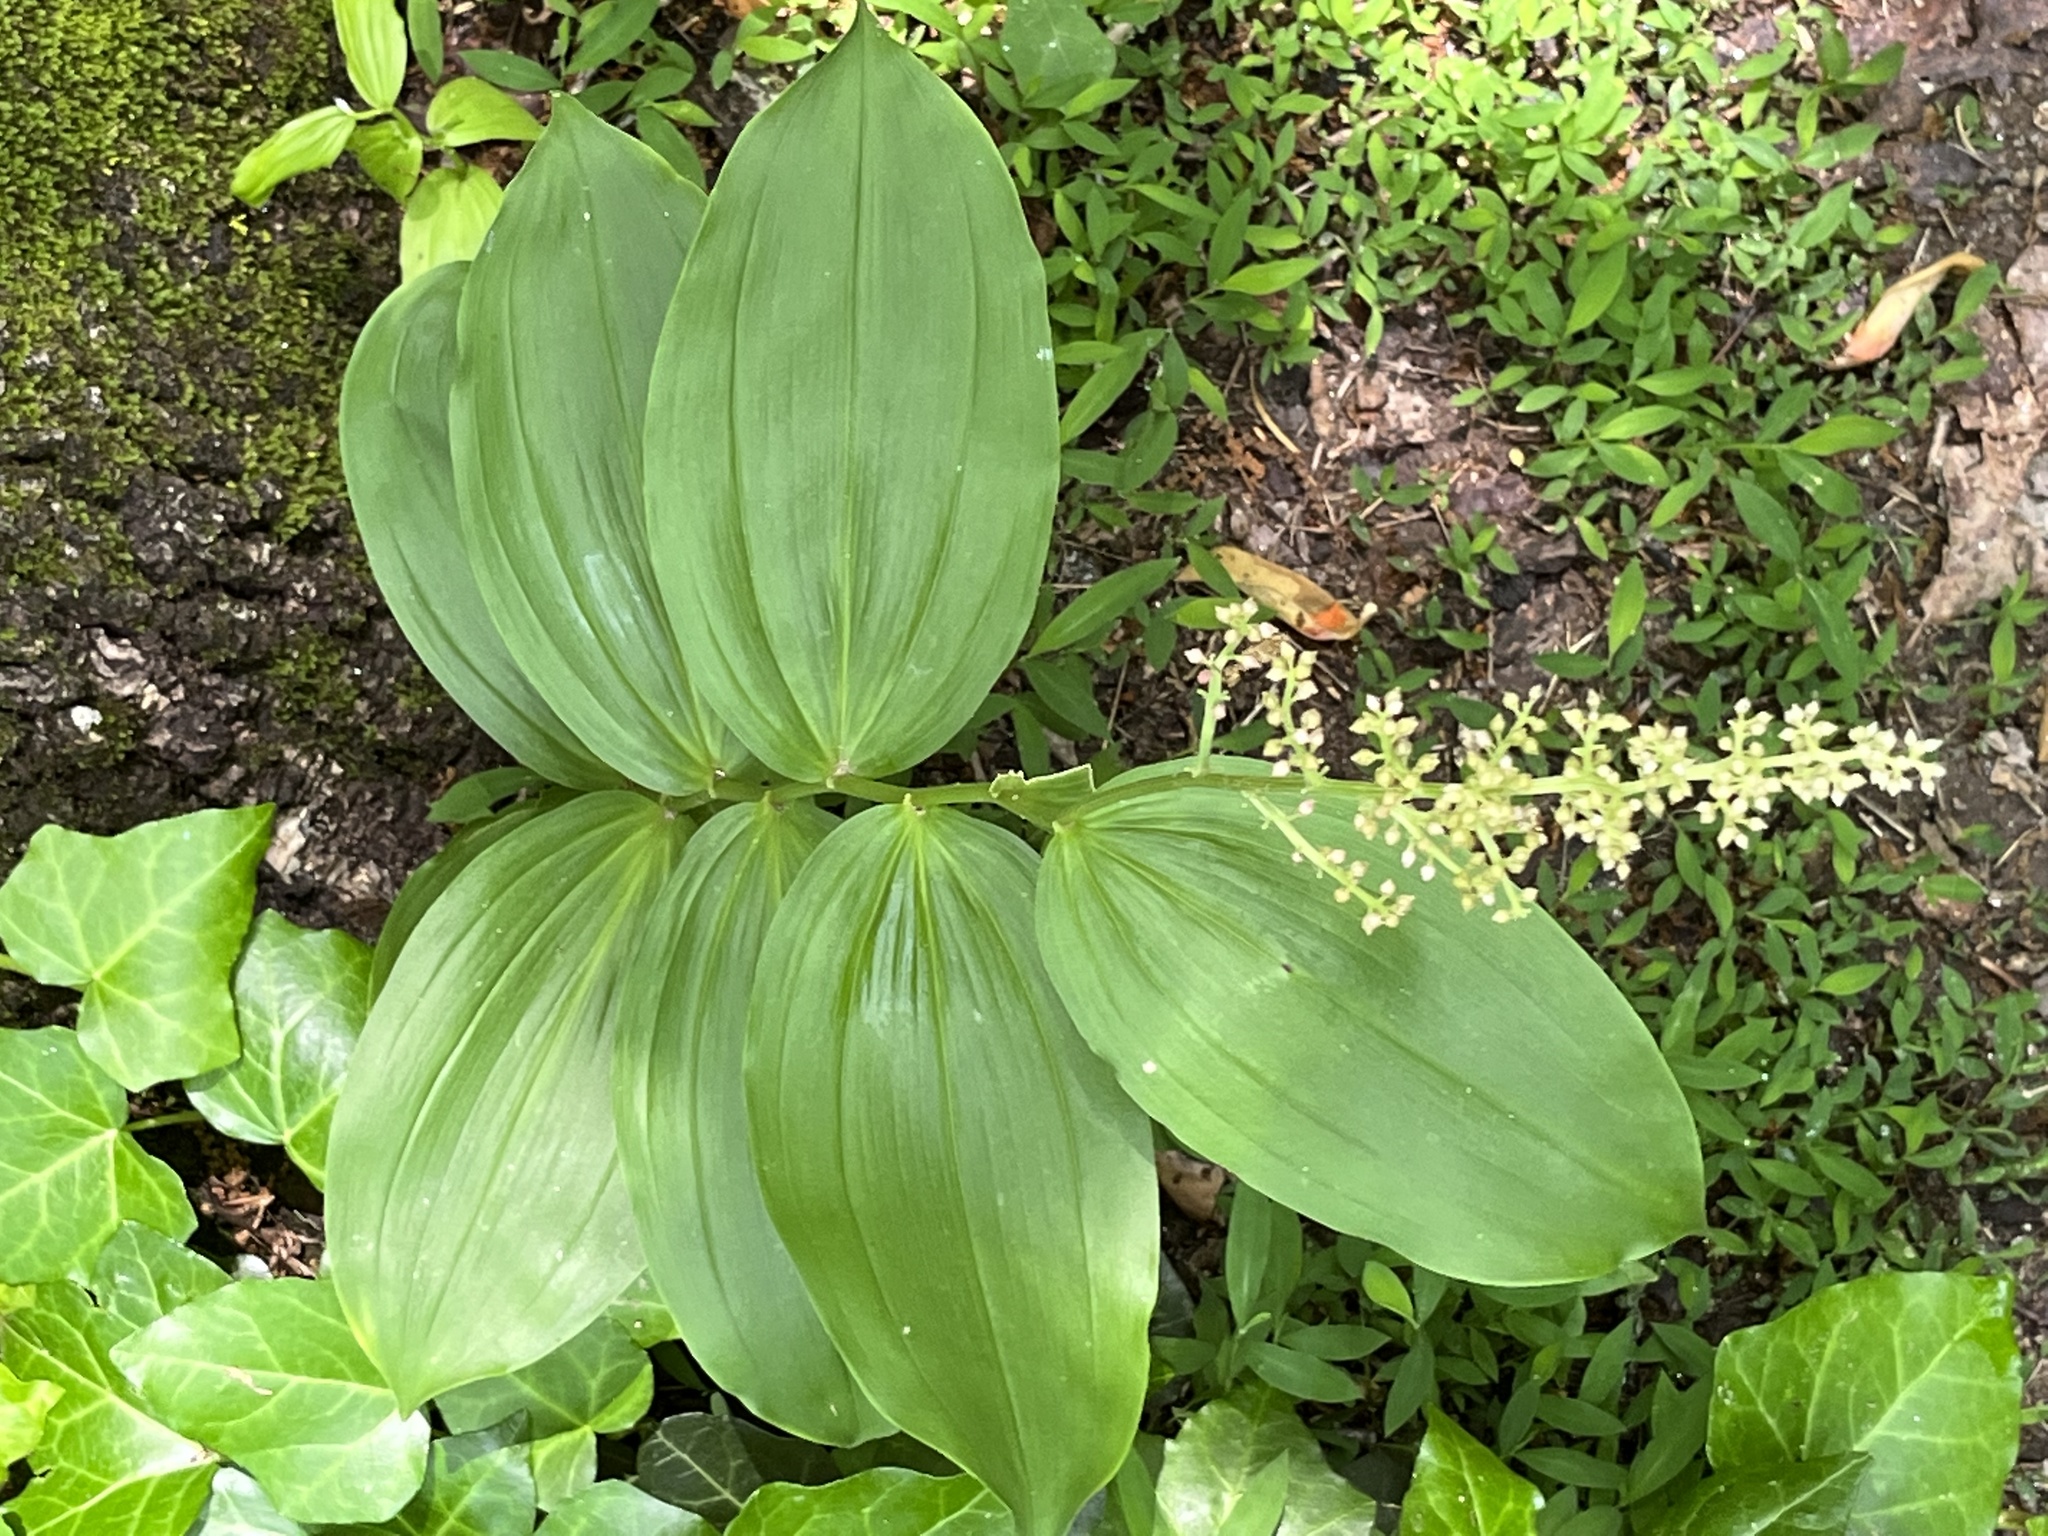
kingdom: Plantae
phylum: Tracheophyta
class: Liliopsida
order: Asparagales
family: Asparagaceae
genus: Maianthemum
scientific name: Maianthemum racemosum
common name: False spikenard
